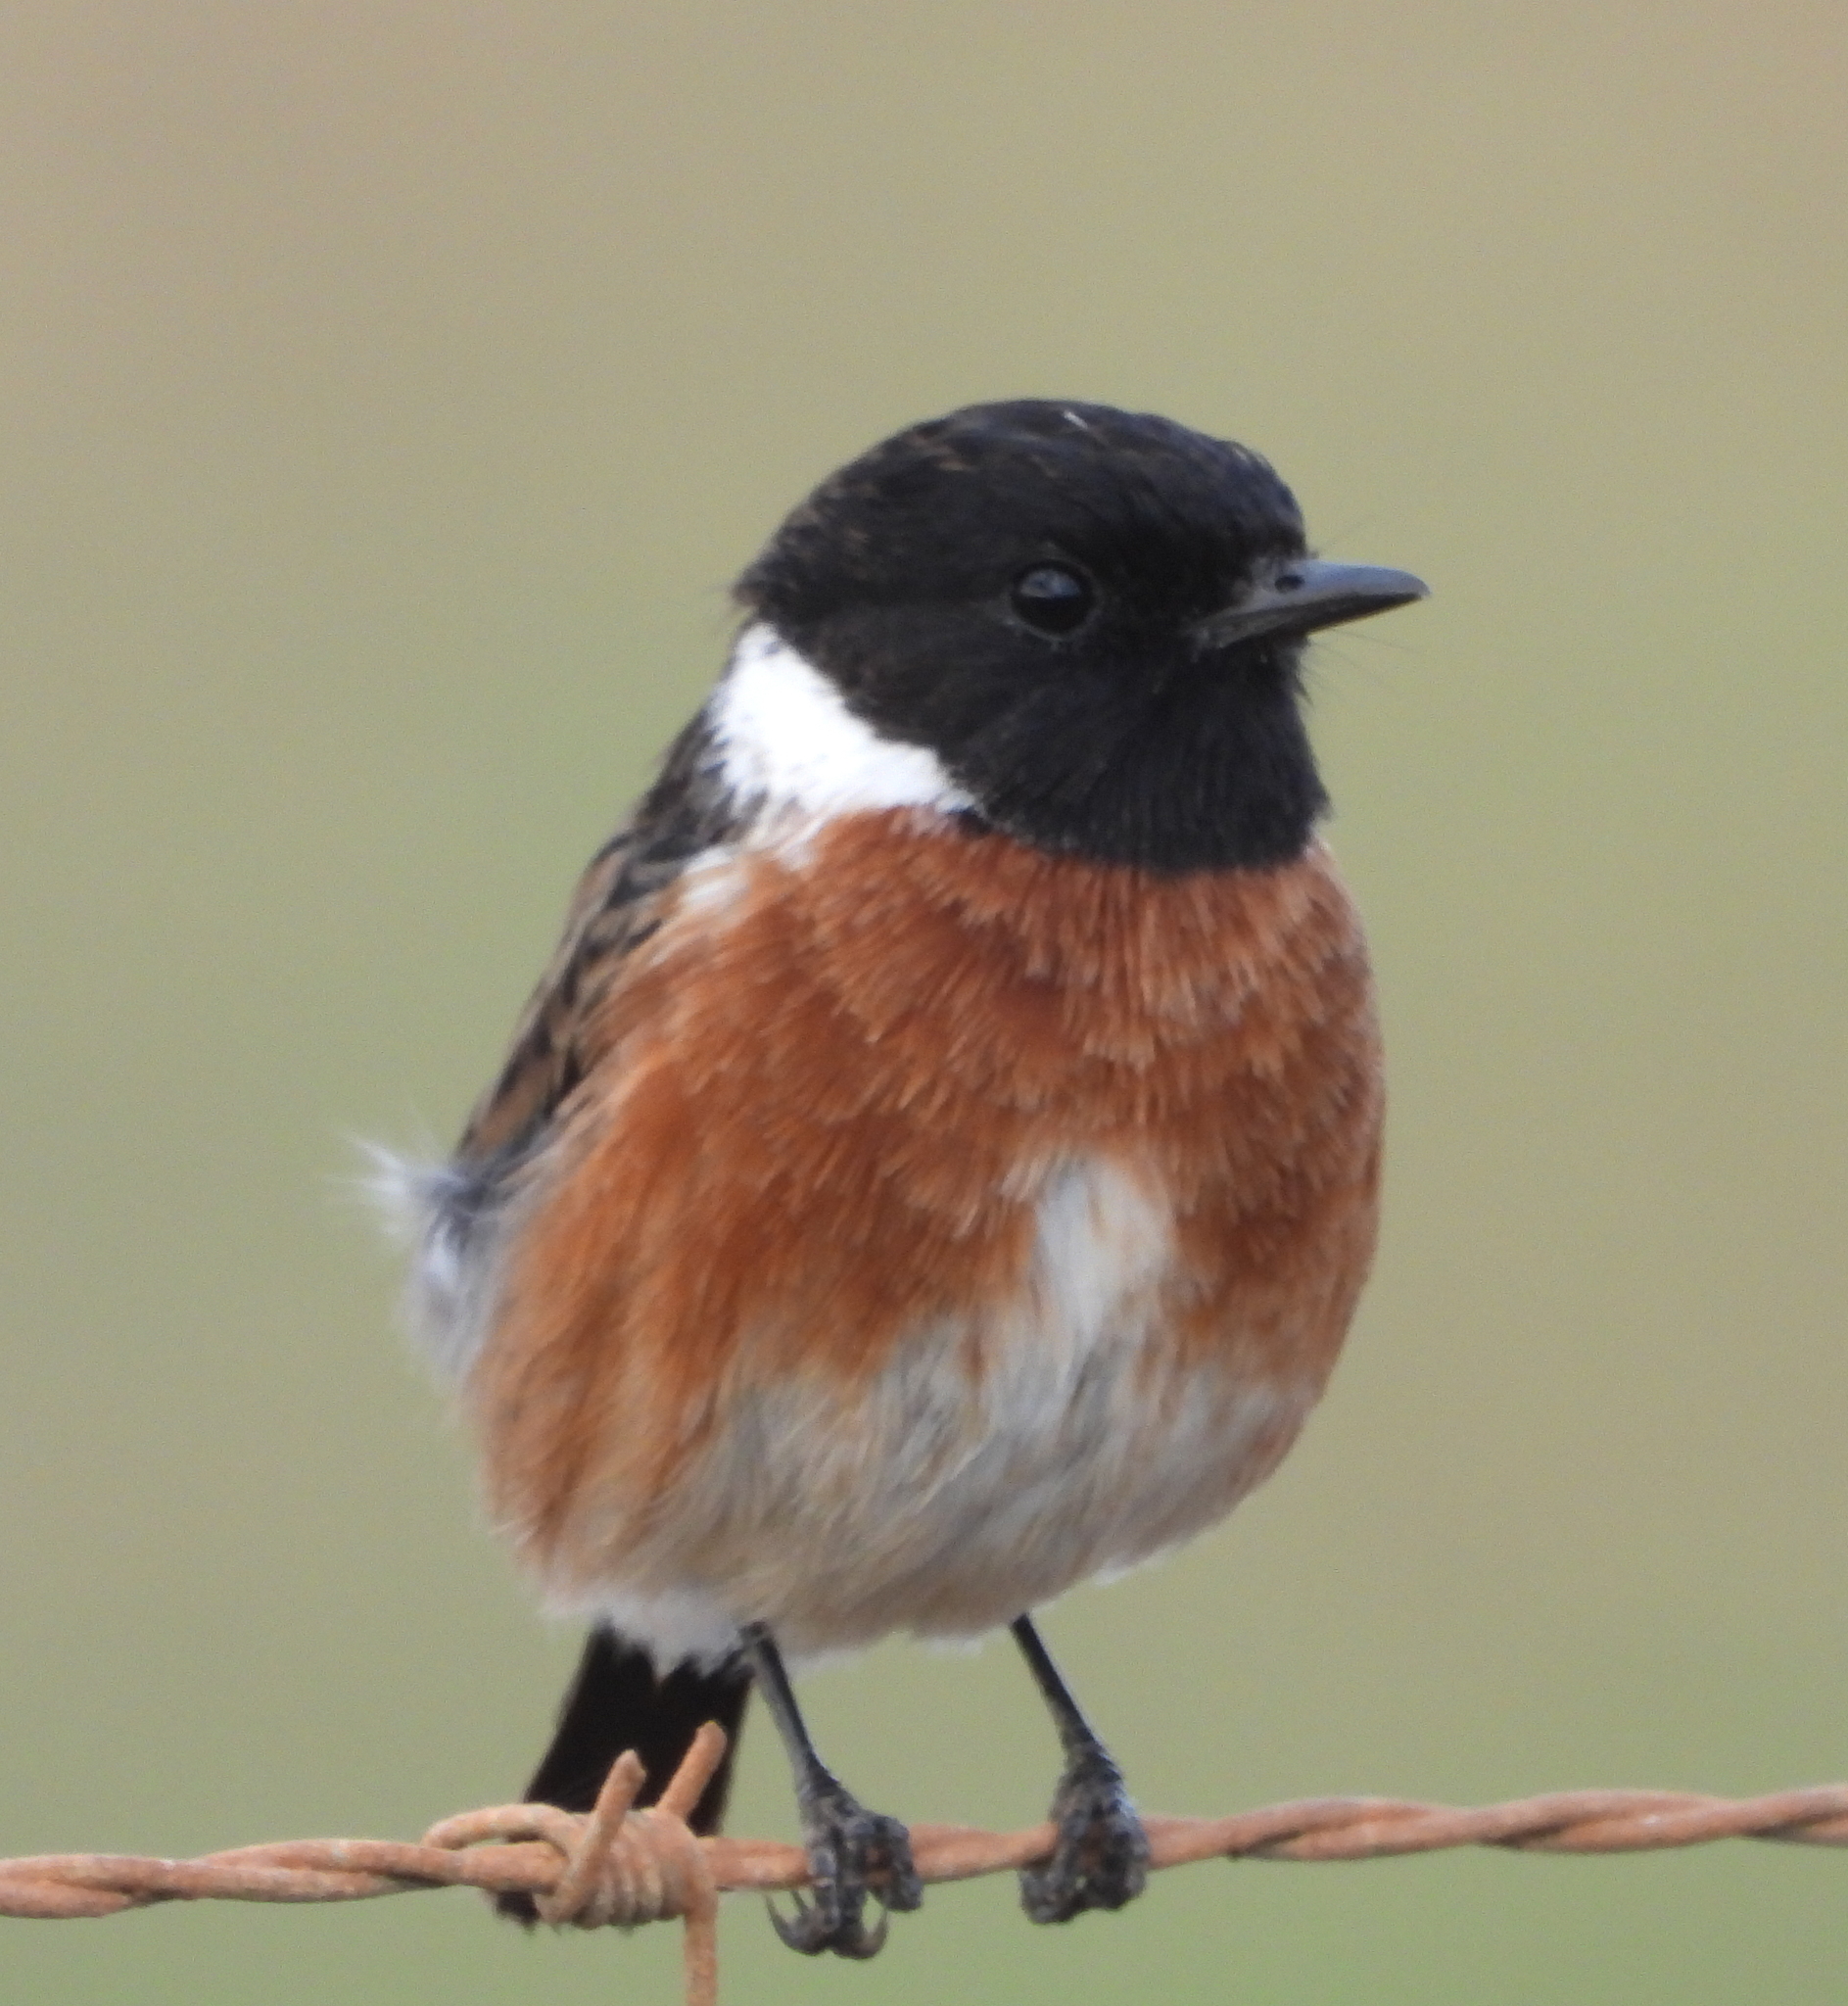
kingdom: Animalia
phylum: Chordata
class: Aves
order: Passeriformes
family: Muscicapidae
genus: Saxicola
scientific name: Saxicola torquatus
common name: African stonechat
